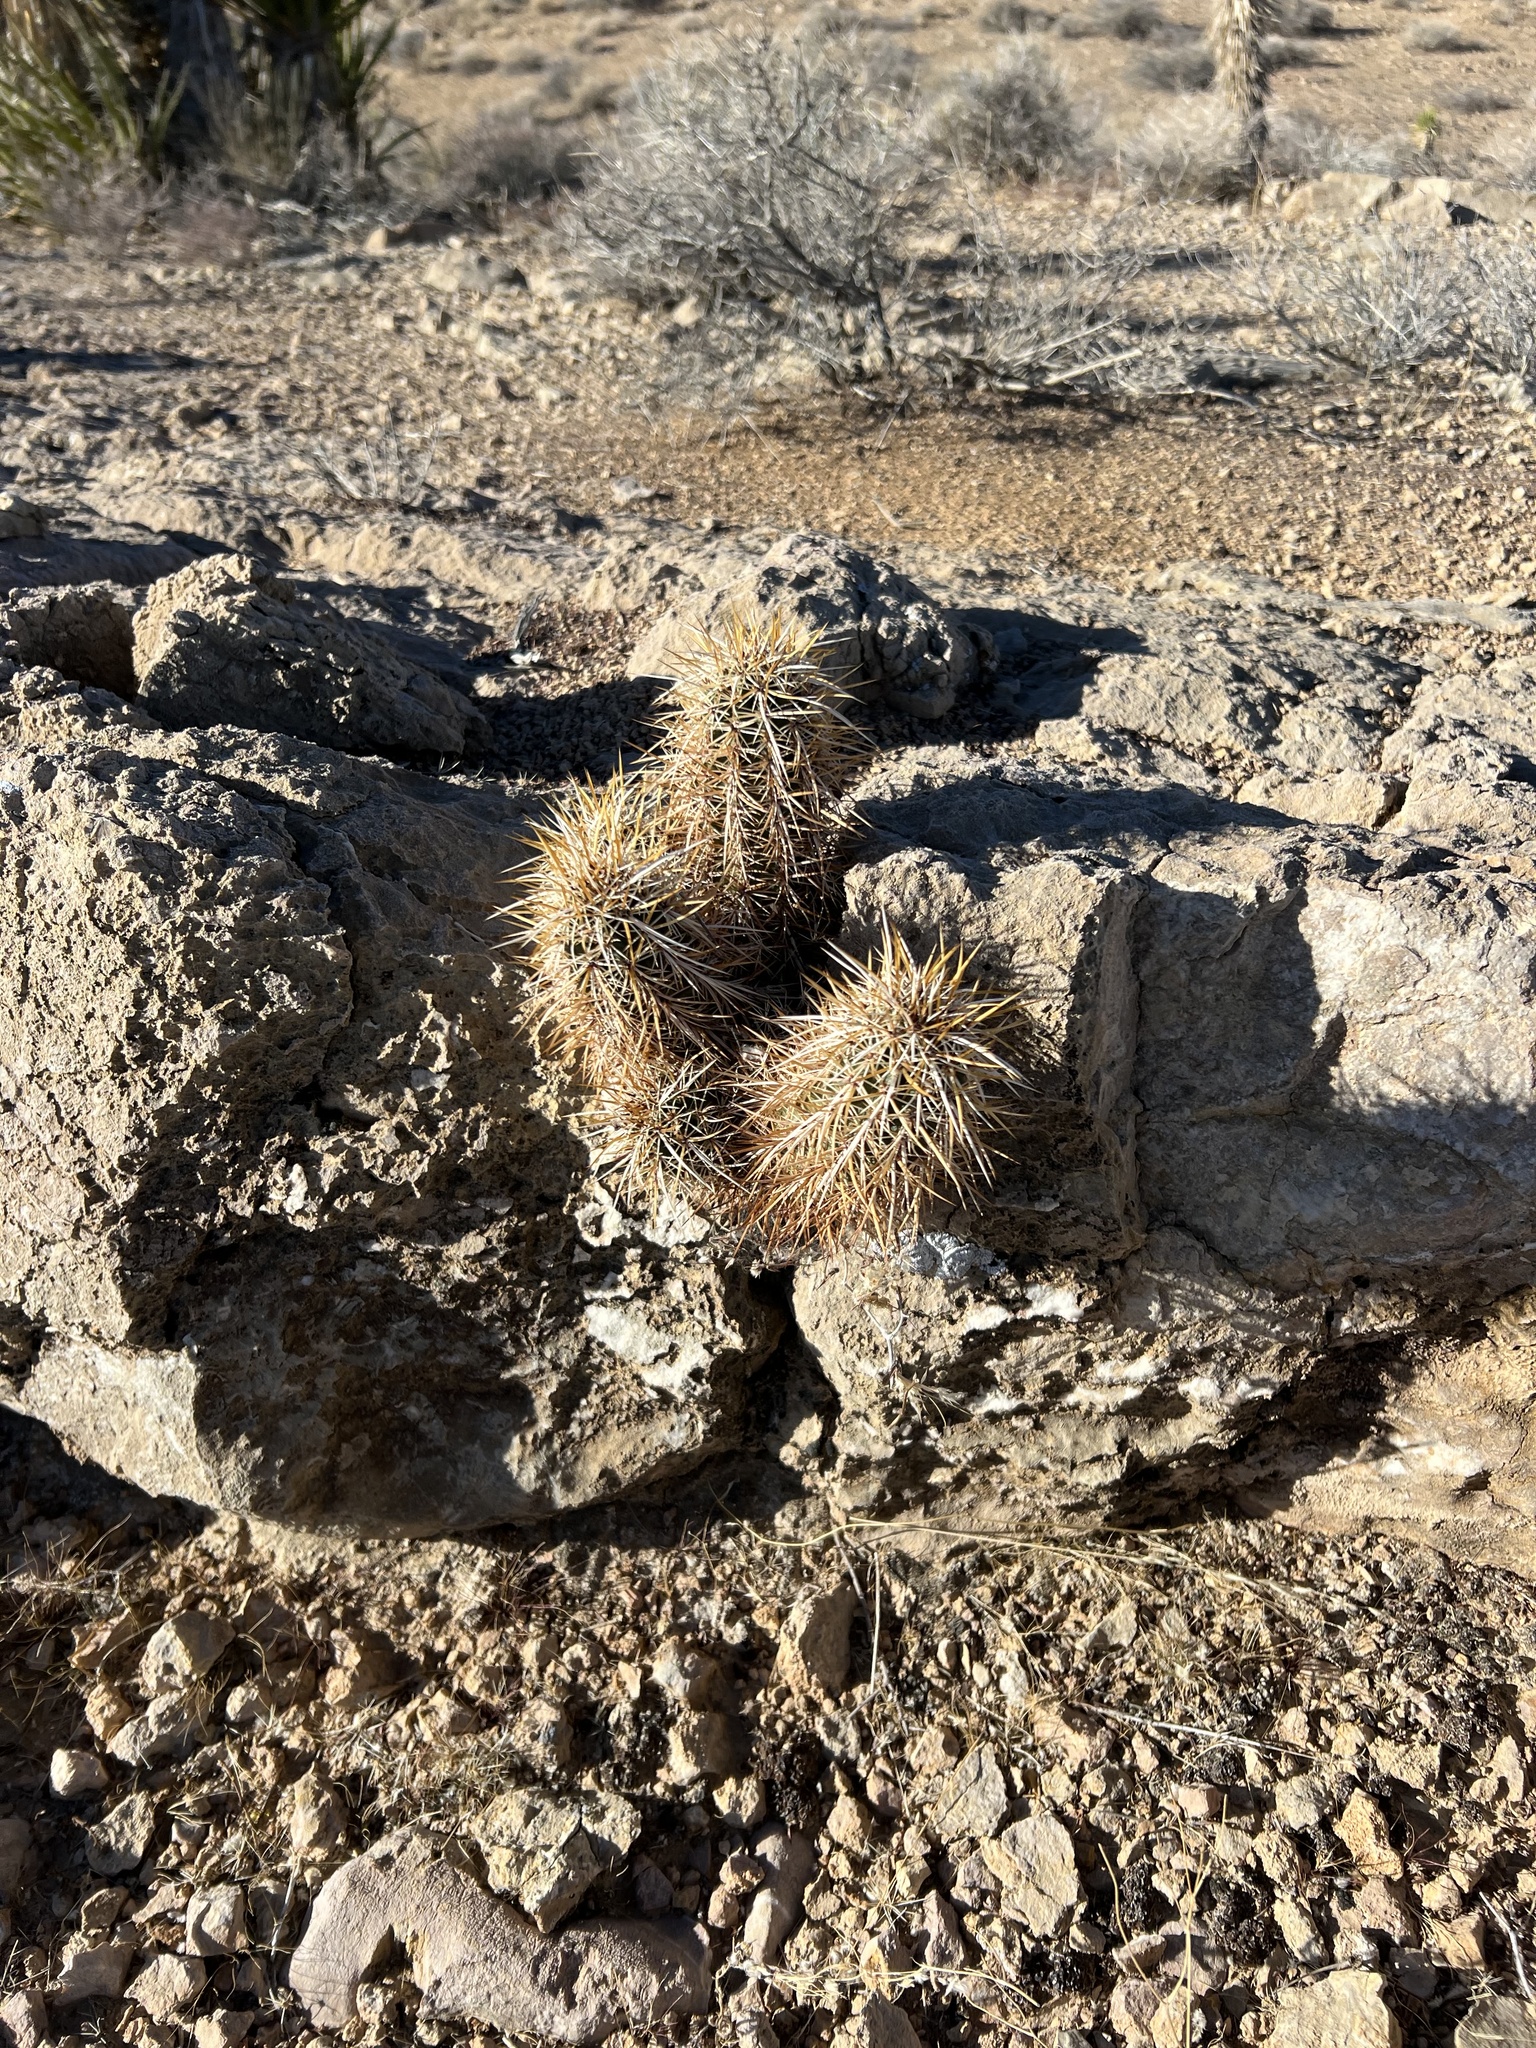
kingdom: Plantae
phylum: Tracheophyta
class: Magnoliopsida
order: Caryophyllales
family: Cactaceae
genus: Echinocereus
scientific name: Echinocereus engelmannii
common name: Engelmann's hedgehog cactus
